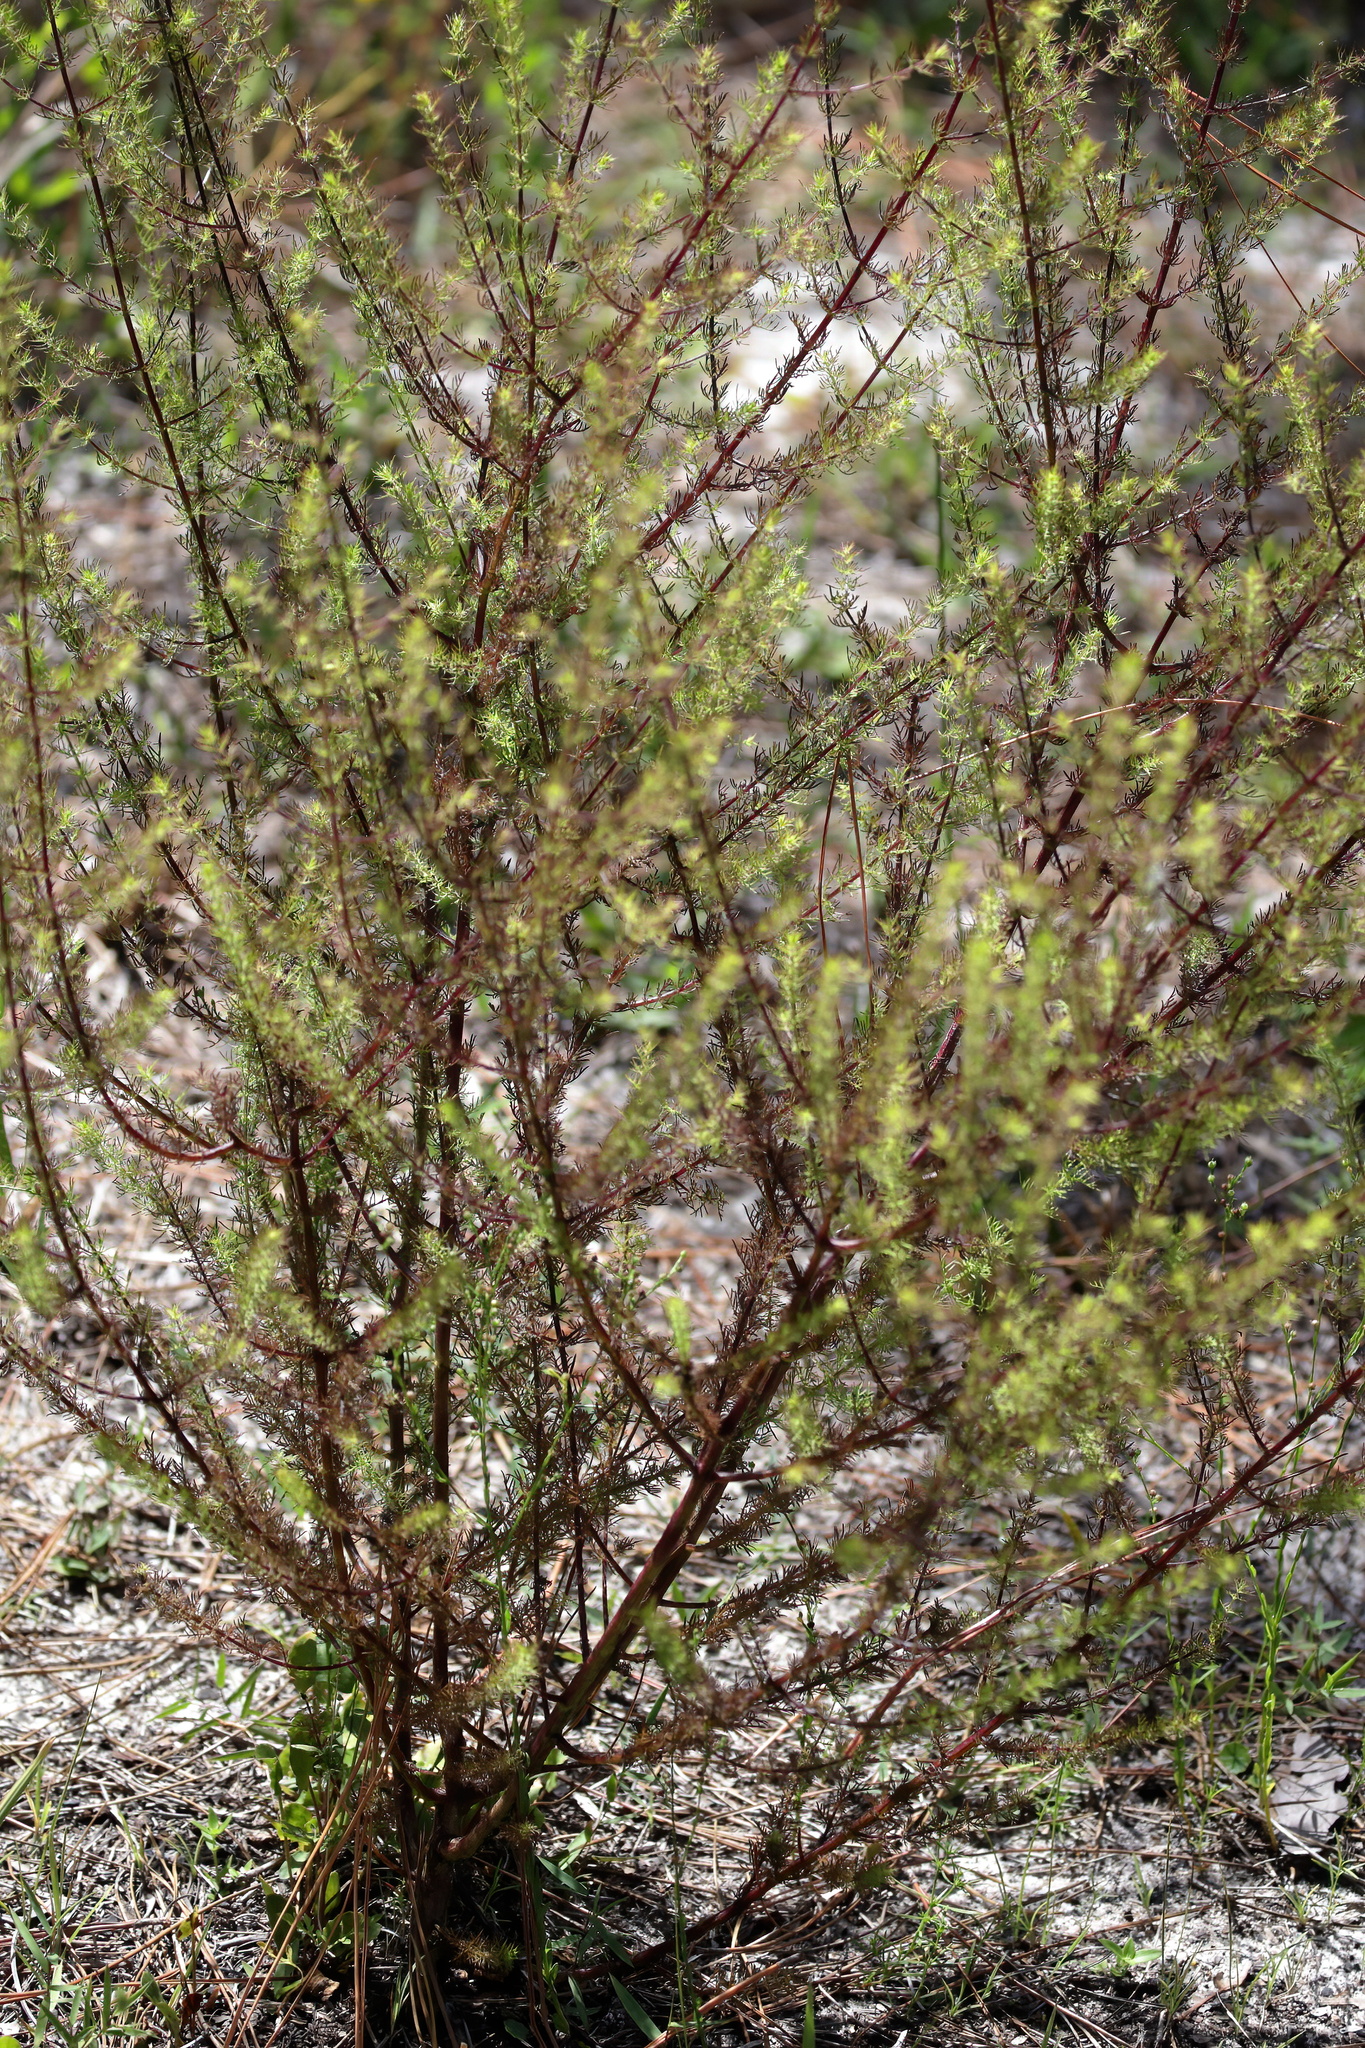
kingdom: Plantae
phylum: Tracheophyta
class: Magnoliopsida
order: Lamiales
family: Orobanchaceae
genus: Seymeria
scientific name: Seymeria cassioides
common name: Yaupon black-senna
